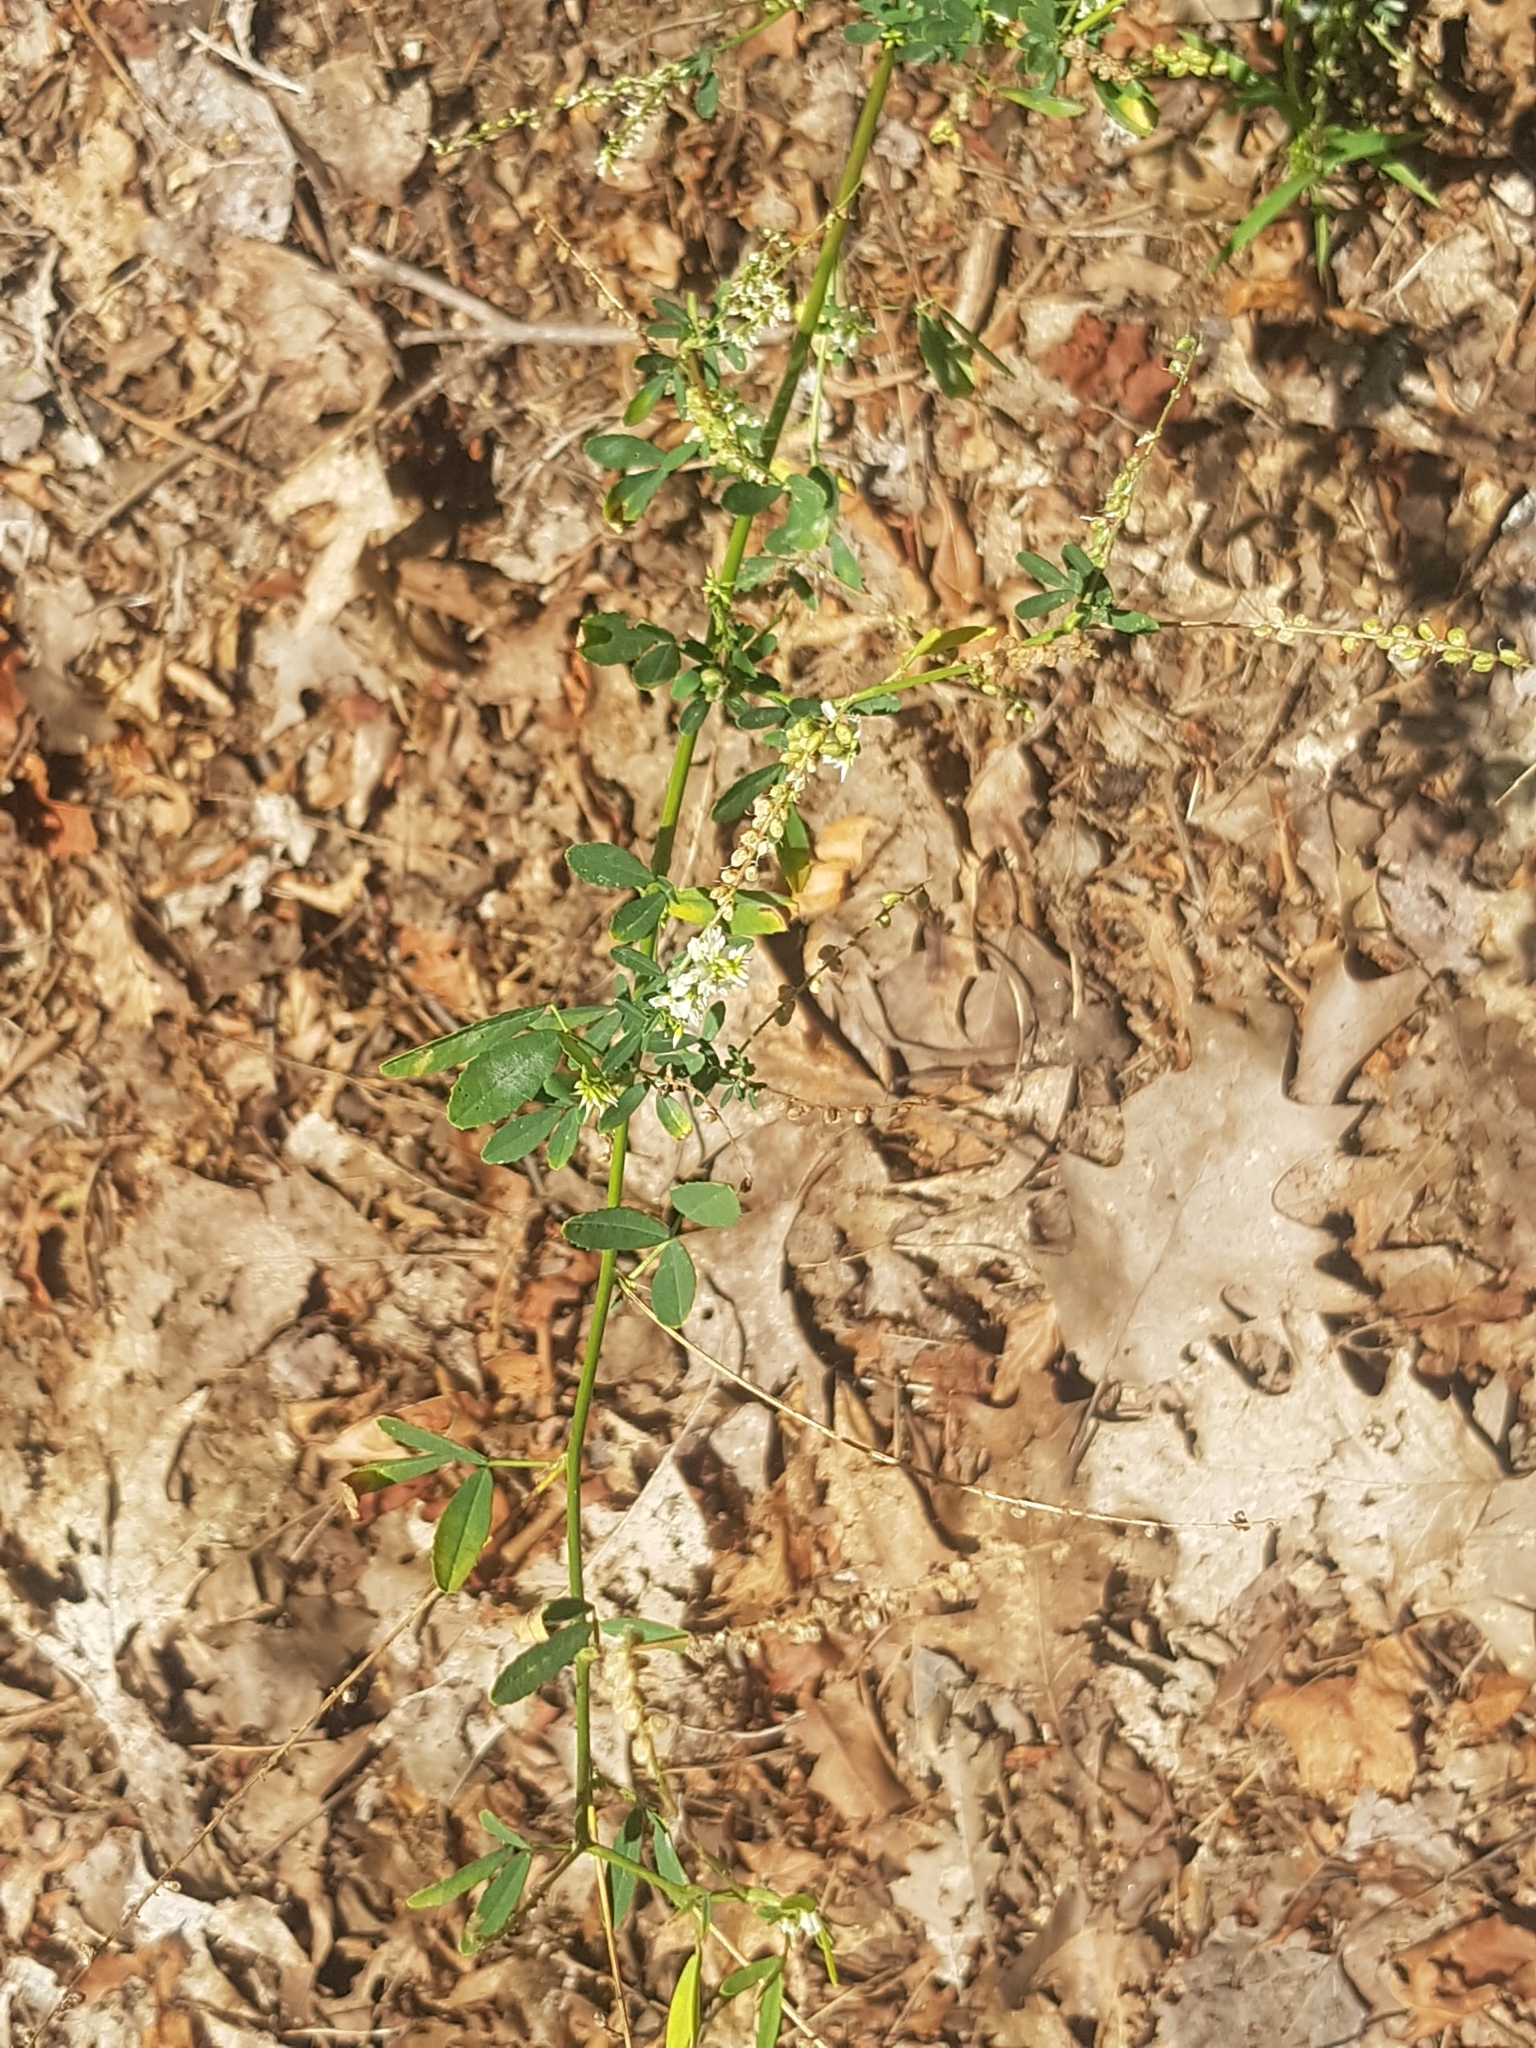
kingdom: Plantae
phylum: Tracheophyta
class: Magnoliopsida
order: Fabales
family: Fabaceae
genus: Melilotus
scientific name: Melilotus albus
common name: White melilot
